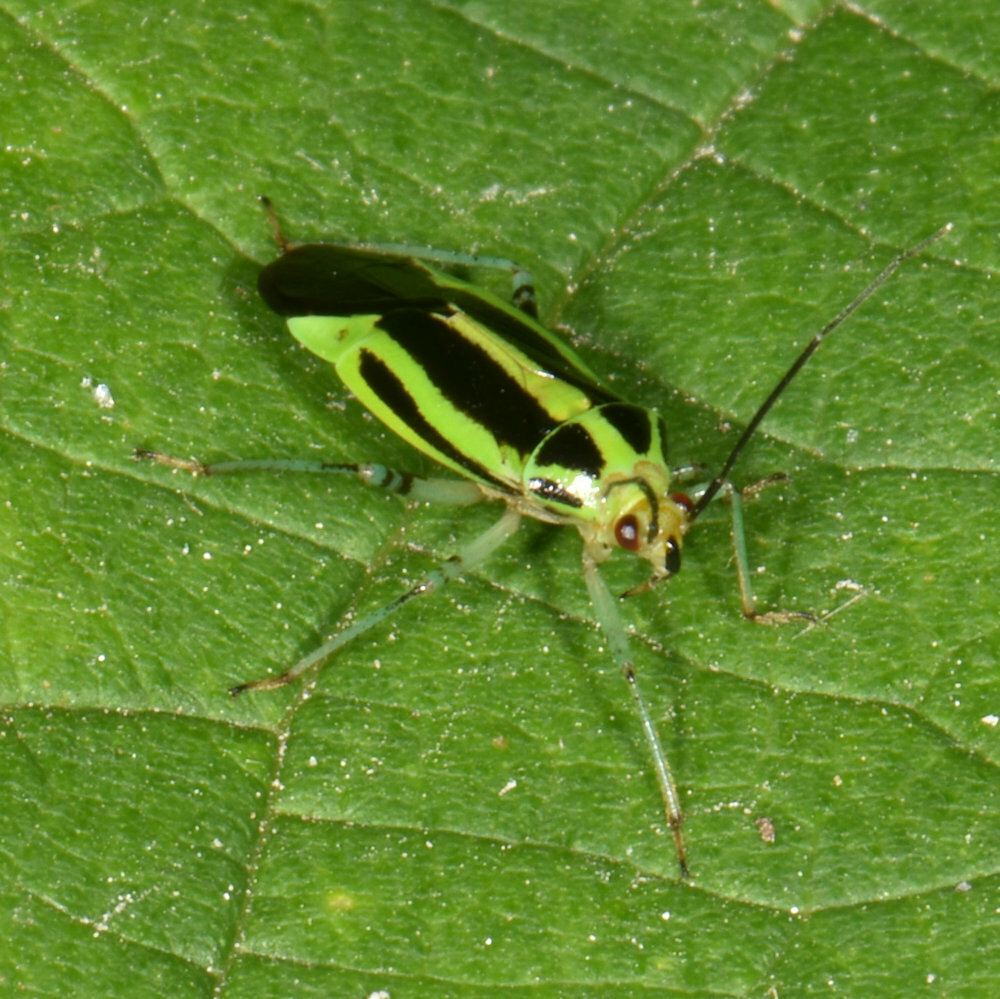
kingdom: Animalia
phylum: Arthropoda
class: Insecta
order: Hemiptera
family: Miridae
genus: Poecilocapsus
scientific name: Poecilocapsus lineatus
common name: Four-lined plant bug
